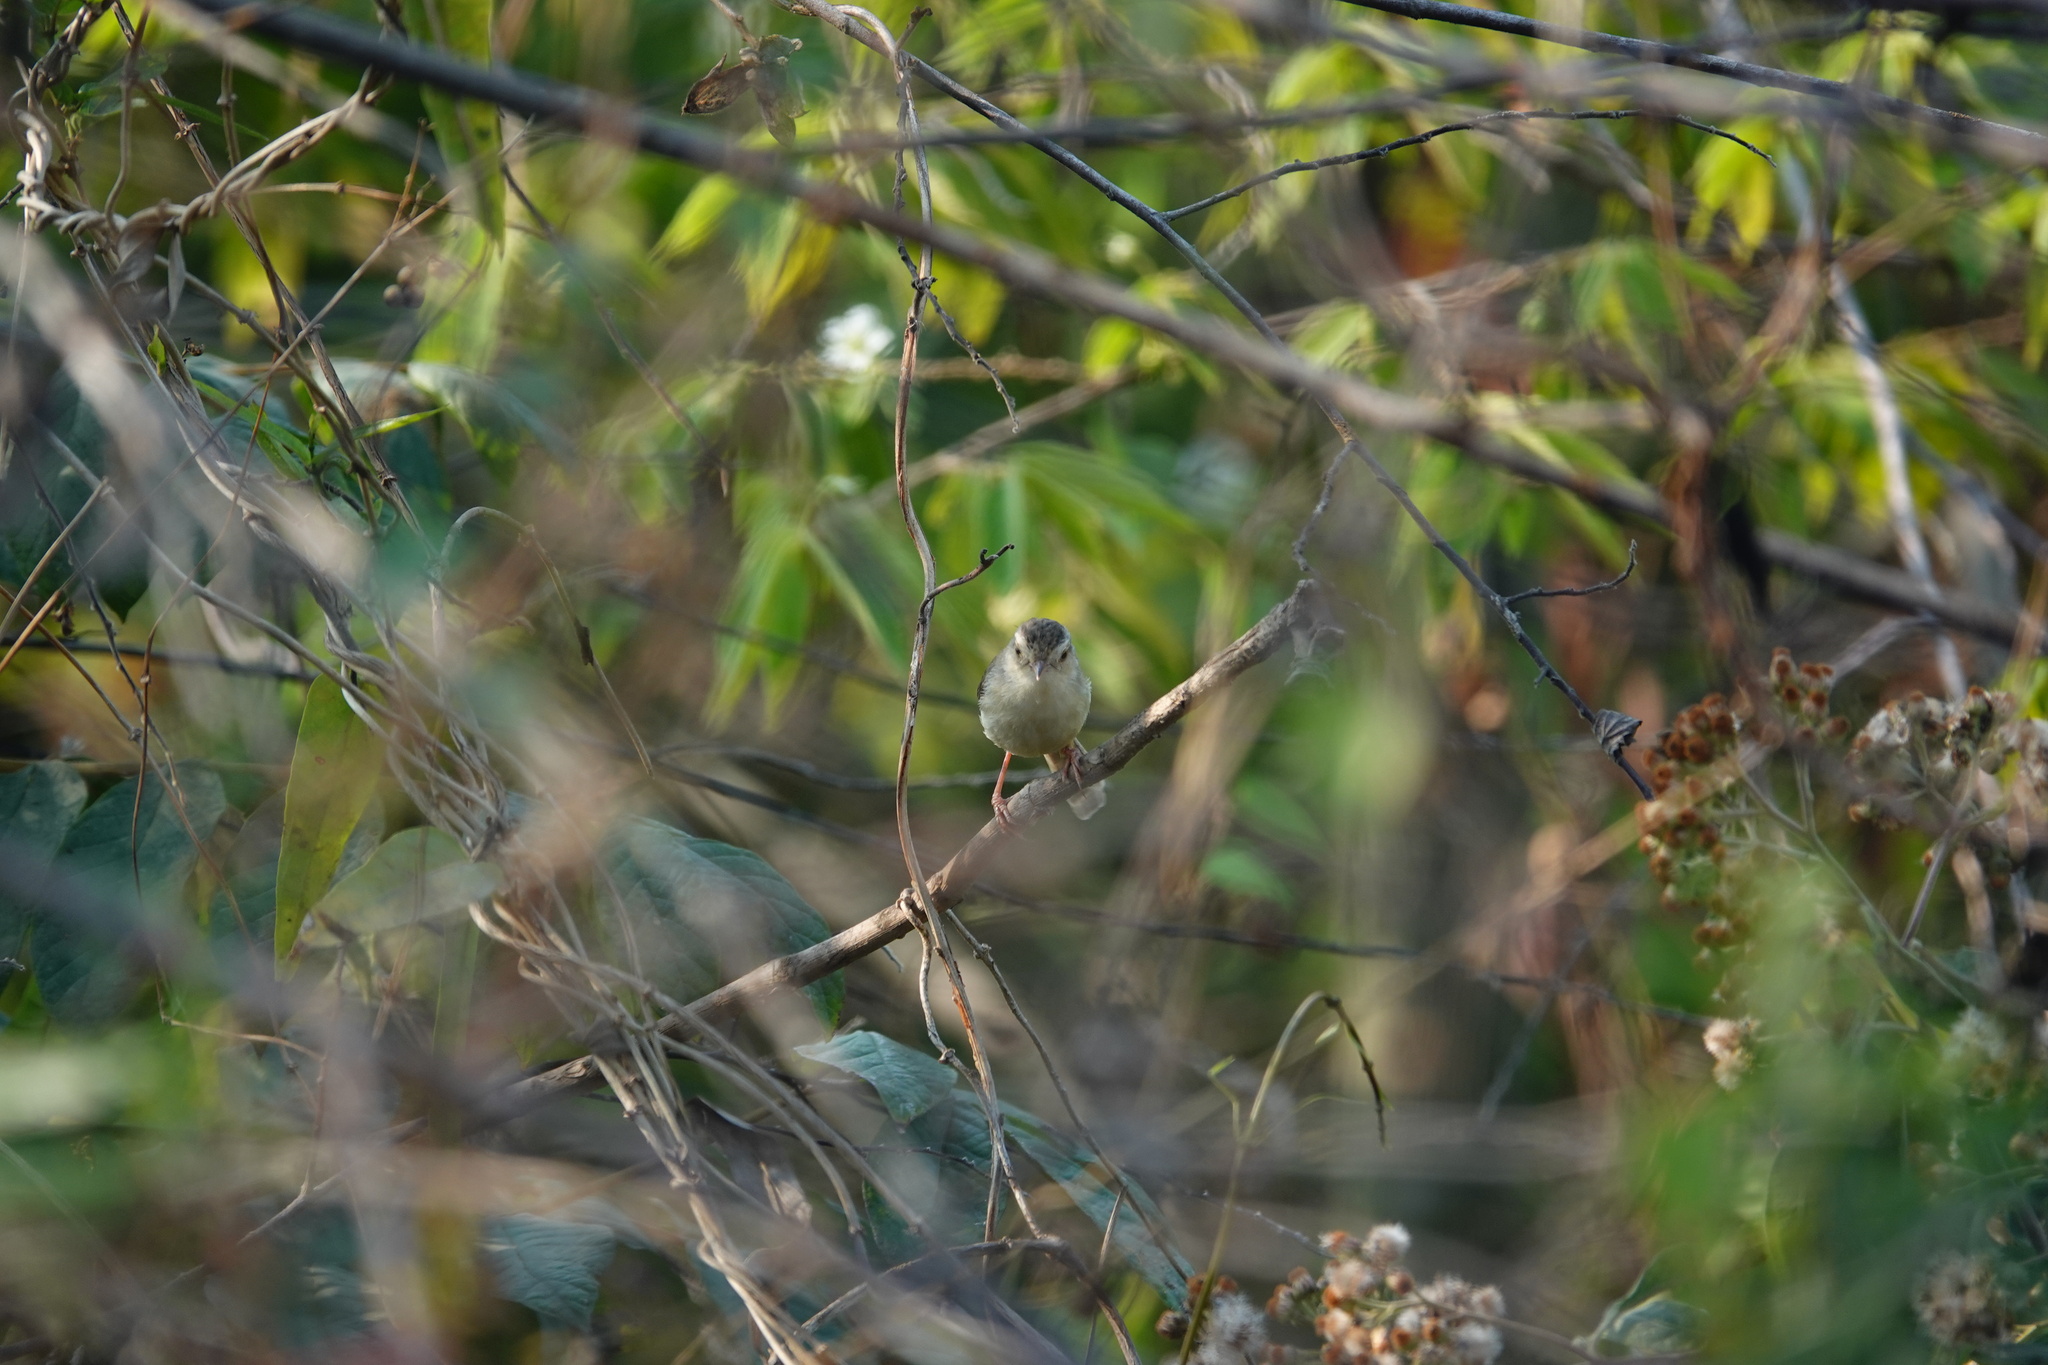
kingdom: Animalia
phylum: Chordata
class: Aves
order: Passeriformes
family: Cisticolidae
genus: Prinia
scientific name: Prinia inornata
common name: Plain prinia
